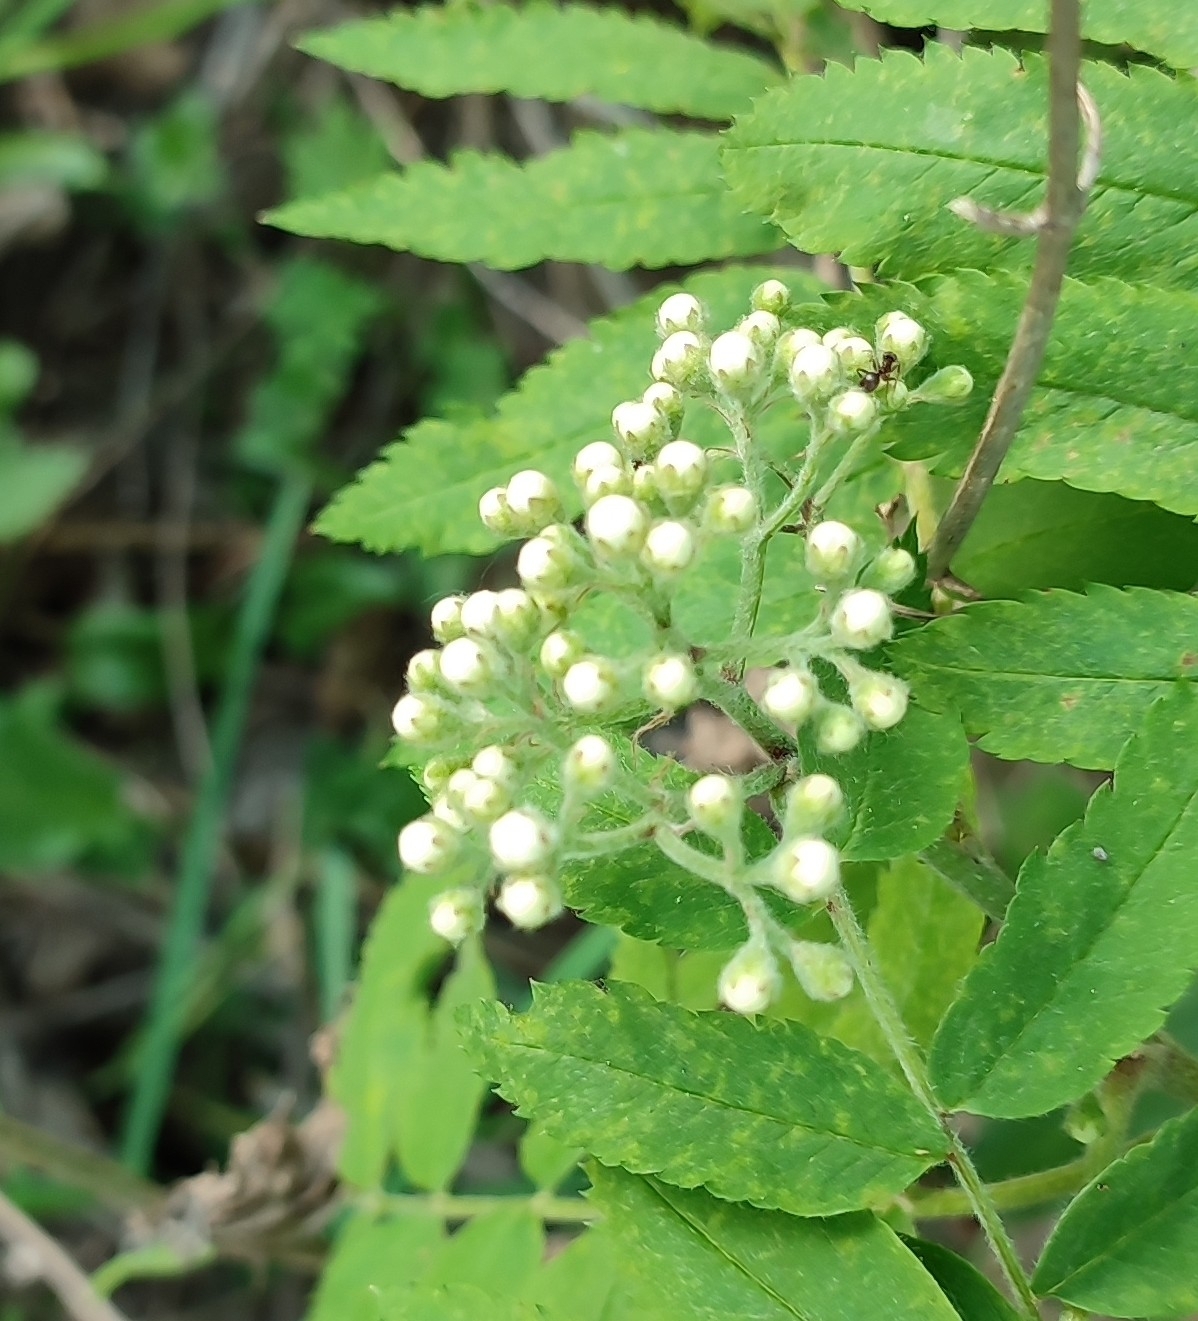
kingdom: Plantae
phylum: Tracheophyta
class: Magnoliopsida
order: Rosales
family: Rosaceae
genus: Sorbus
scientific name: Sorbus aucuparia
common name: Rowan
